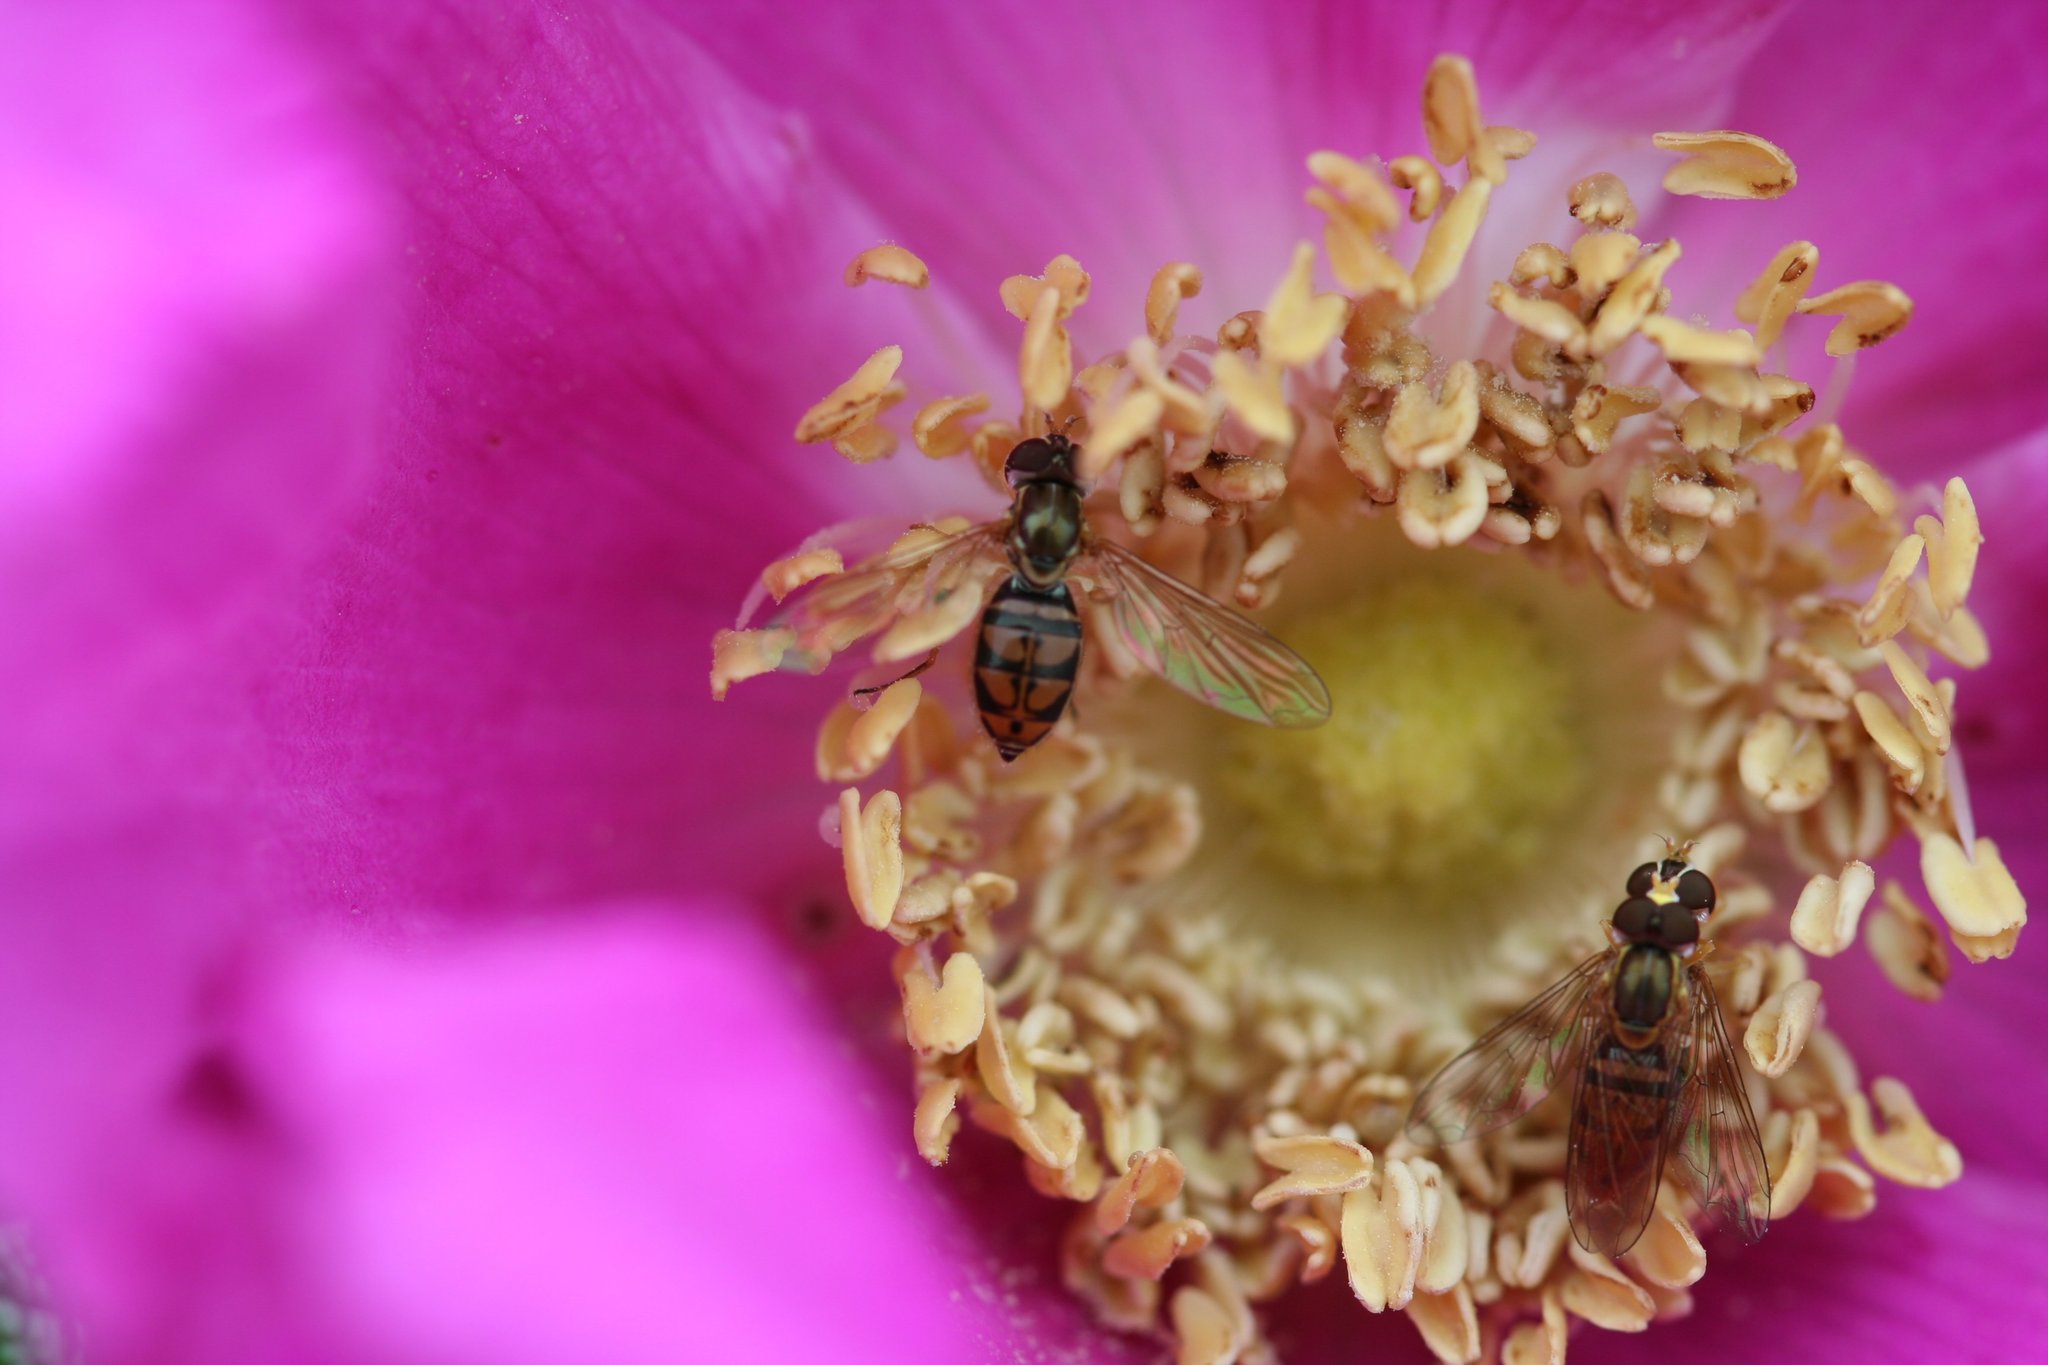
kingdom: Animalia
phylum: Arthropoda
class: Insecta
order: Diptera
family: Syrphidae
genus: Toxomerus
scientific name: Toxomerus marginatus
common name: Syrphid fly
